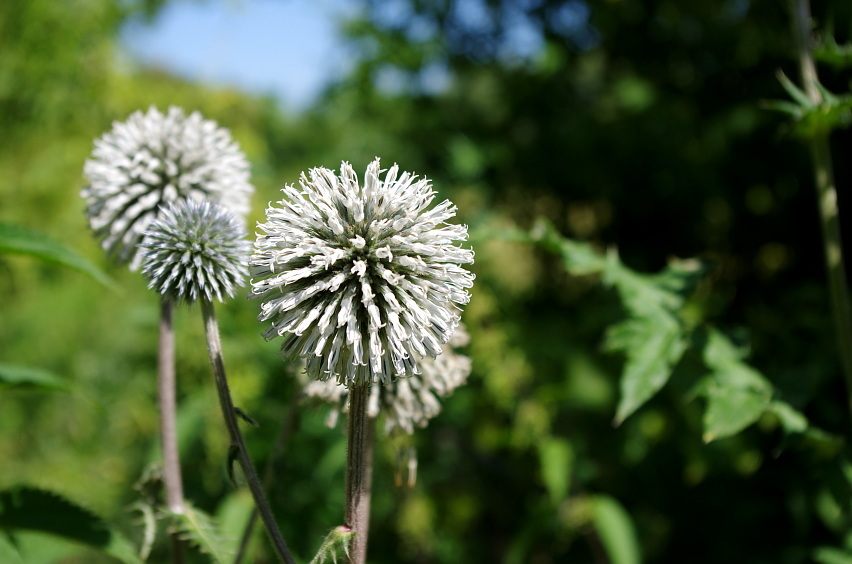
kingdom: Plantae
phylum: Tracheophyta
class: Magnoliopsida
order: Asterales
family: Asteraceae
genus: Echinops
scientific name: Echinops sphaerocephalus
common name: Glandular globe-thistle
